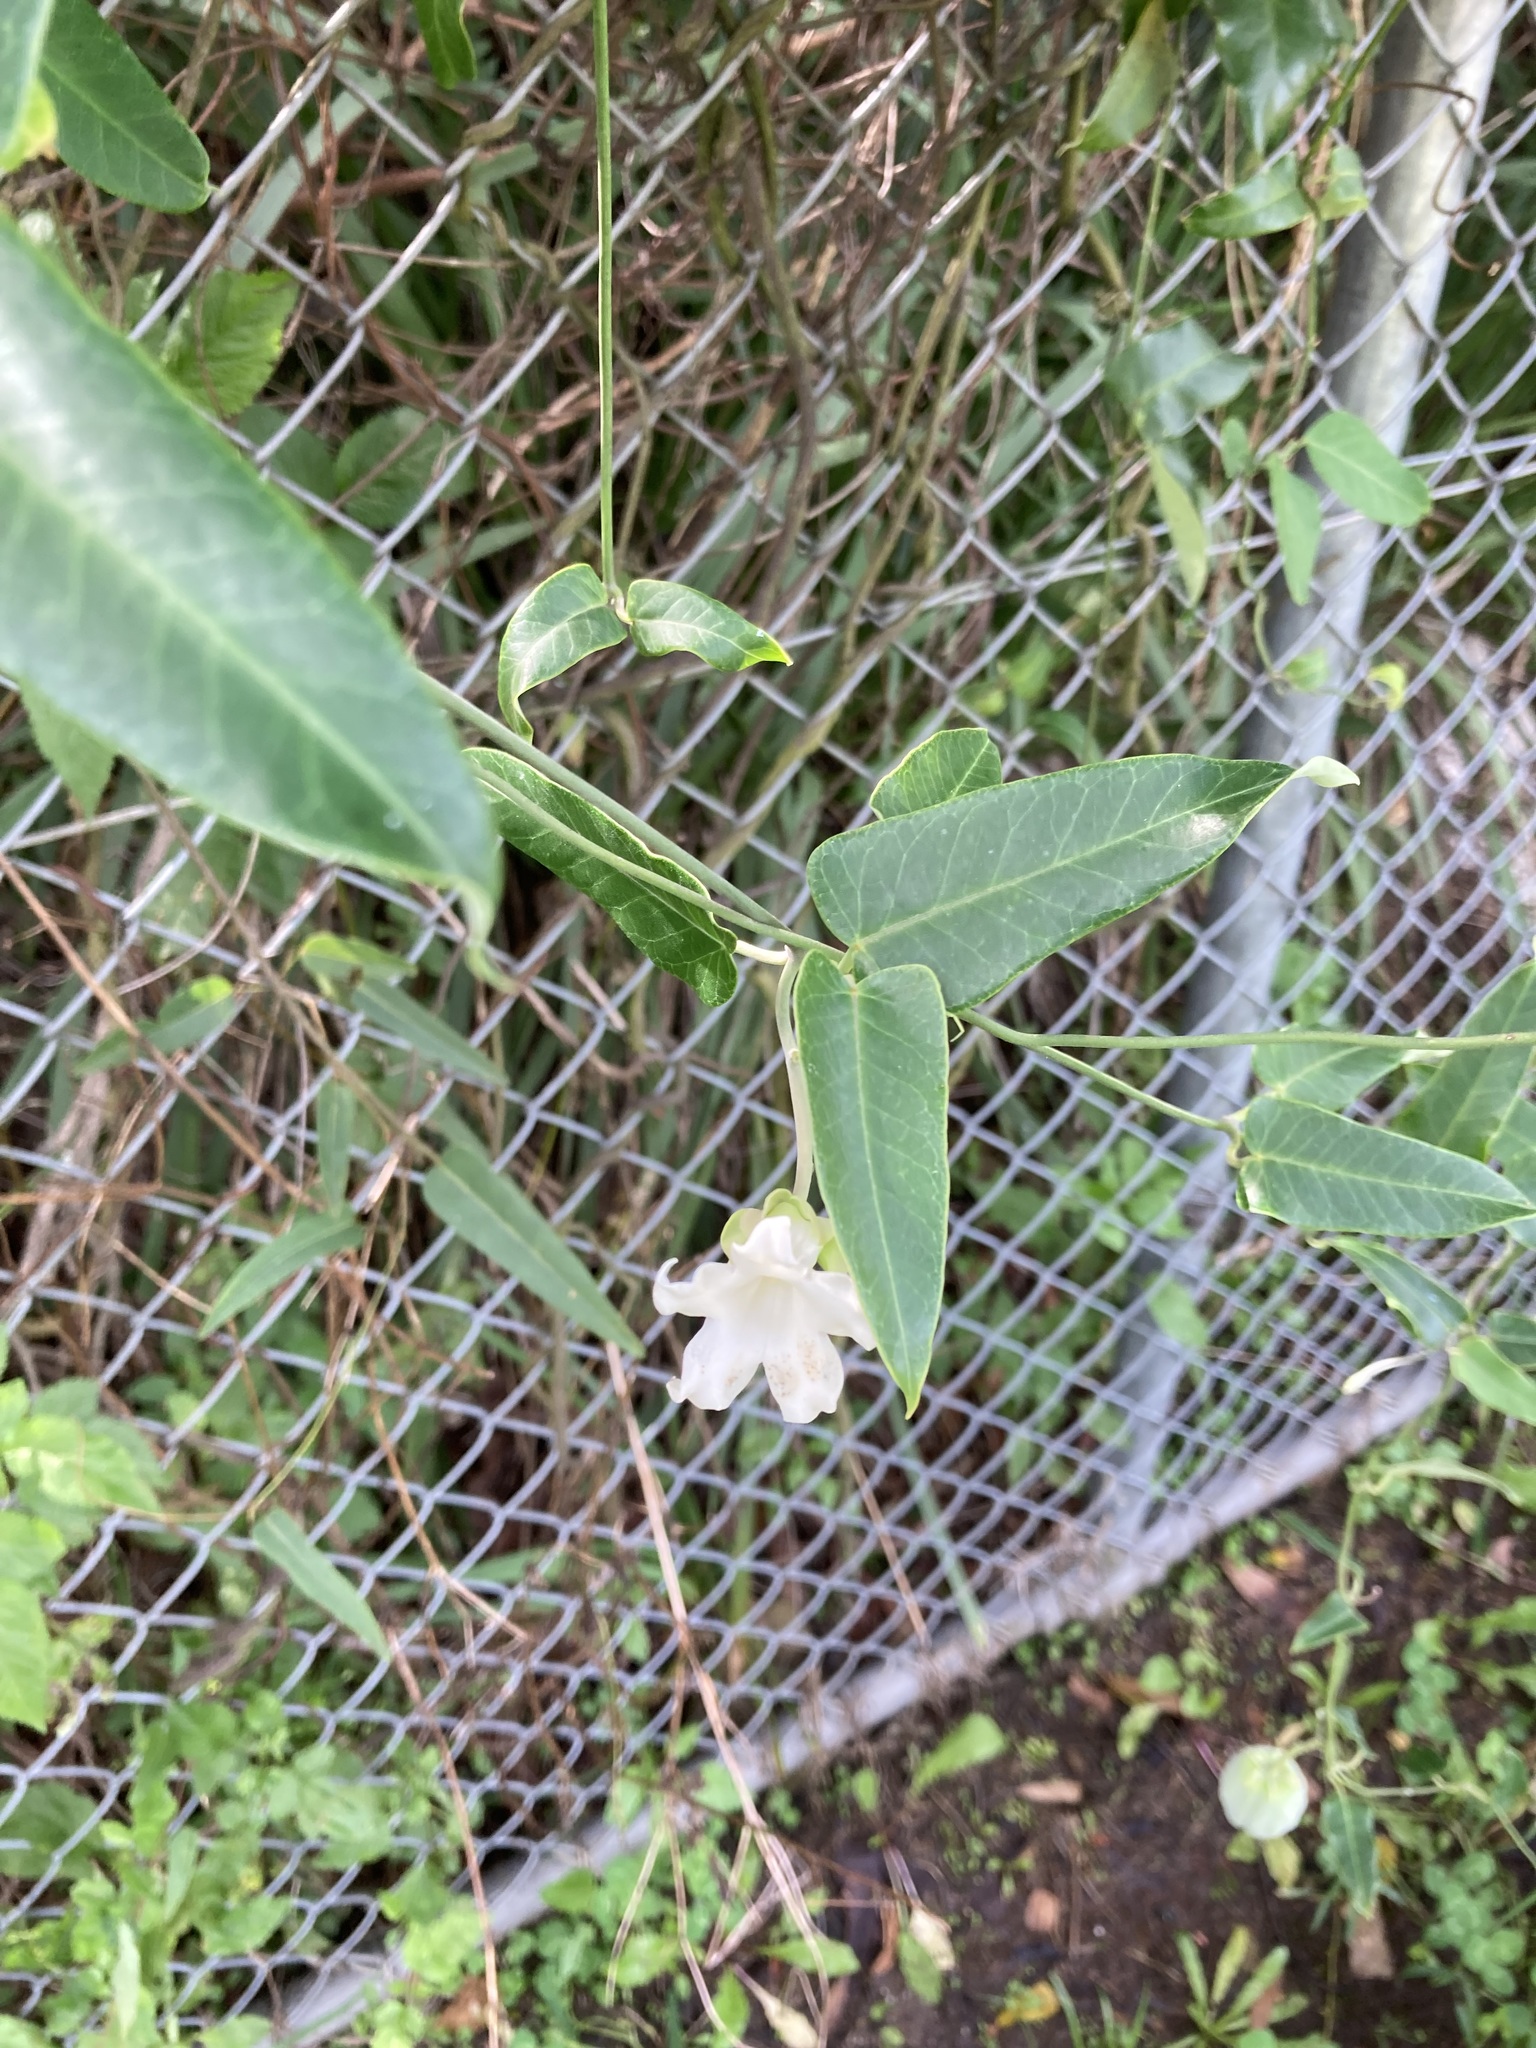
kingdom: Plantae
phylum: Tracheophyta
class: Magnoliopsida
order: Gentianales
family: Apocynaceae
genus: Araujia
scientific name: Araujia sericifera
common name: White bladderflower
